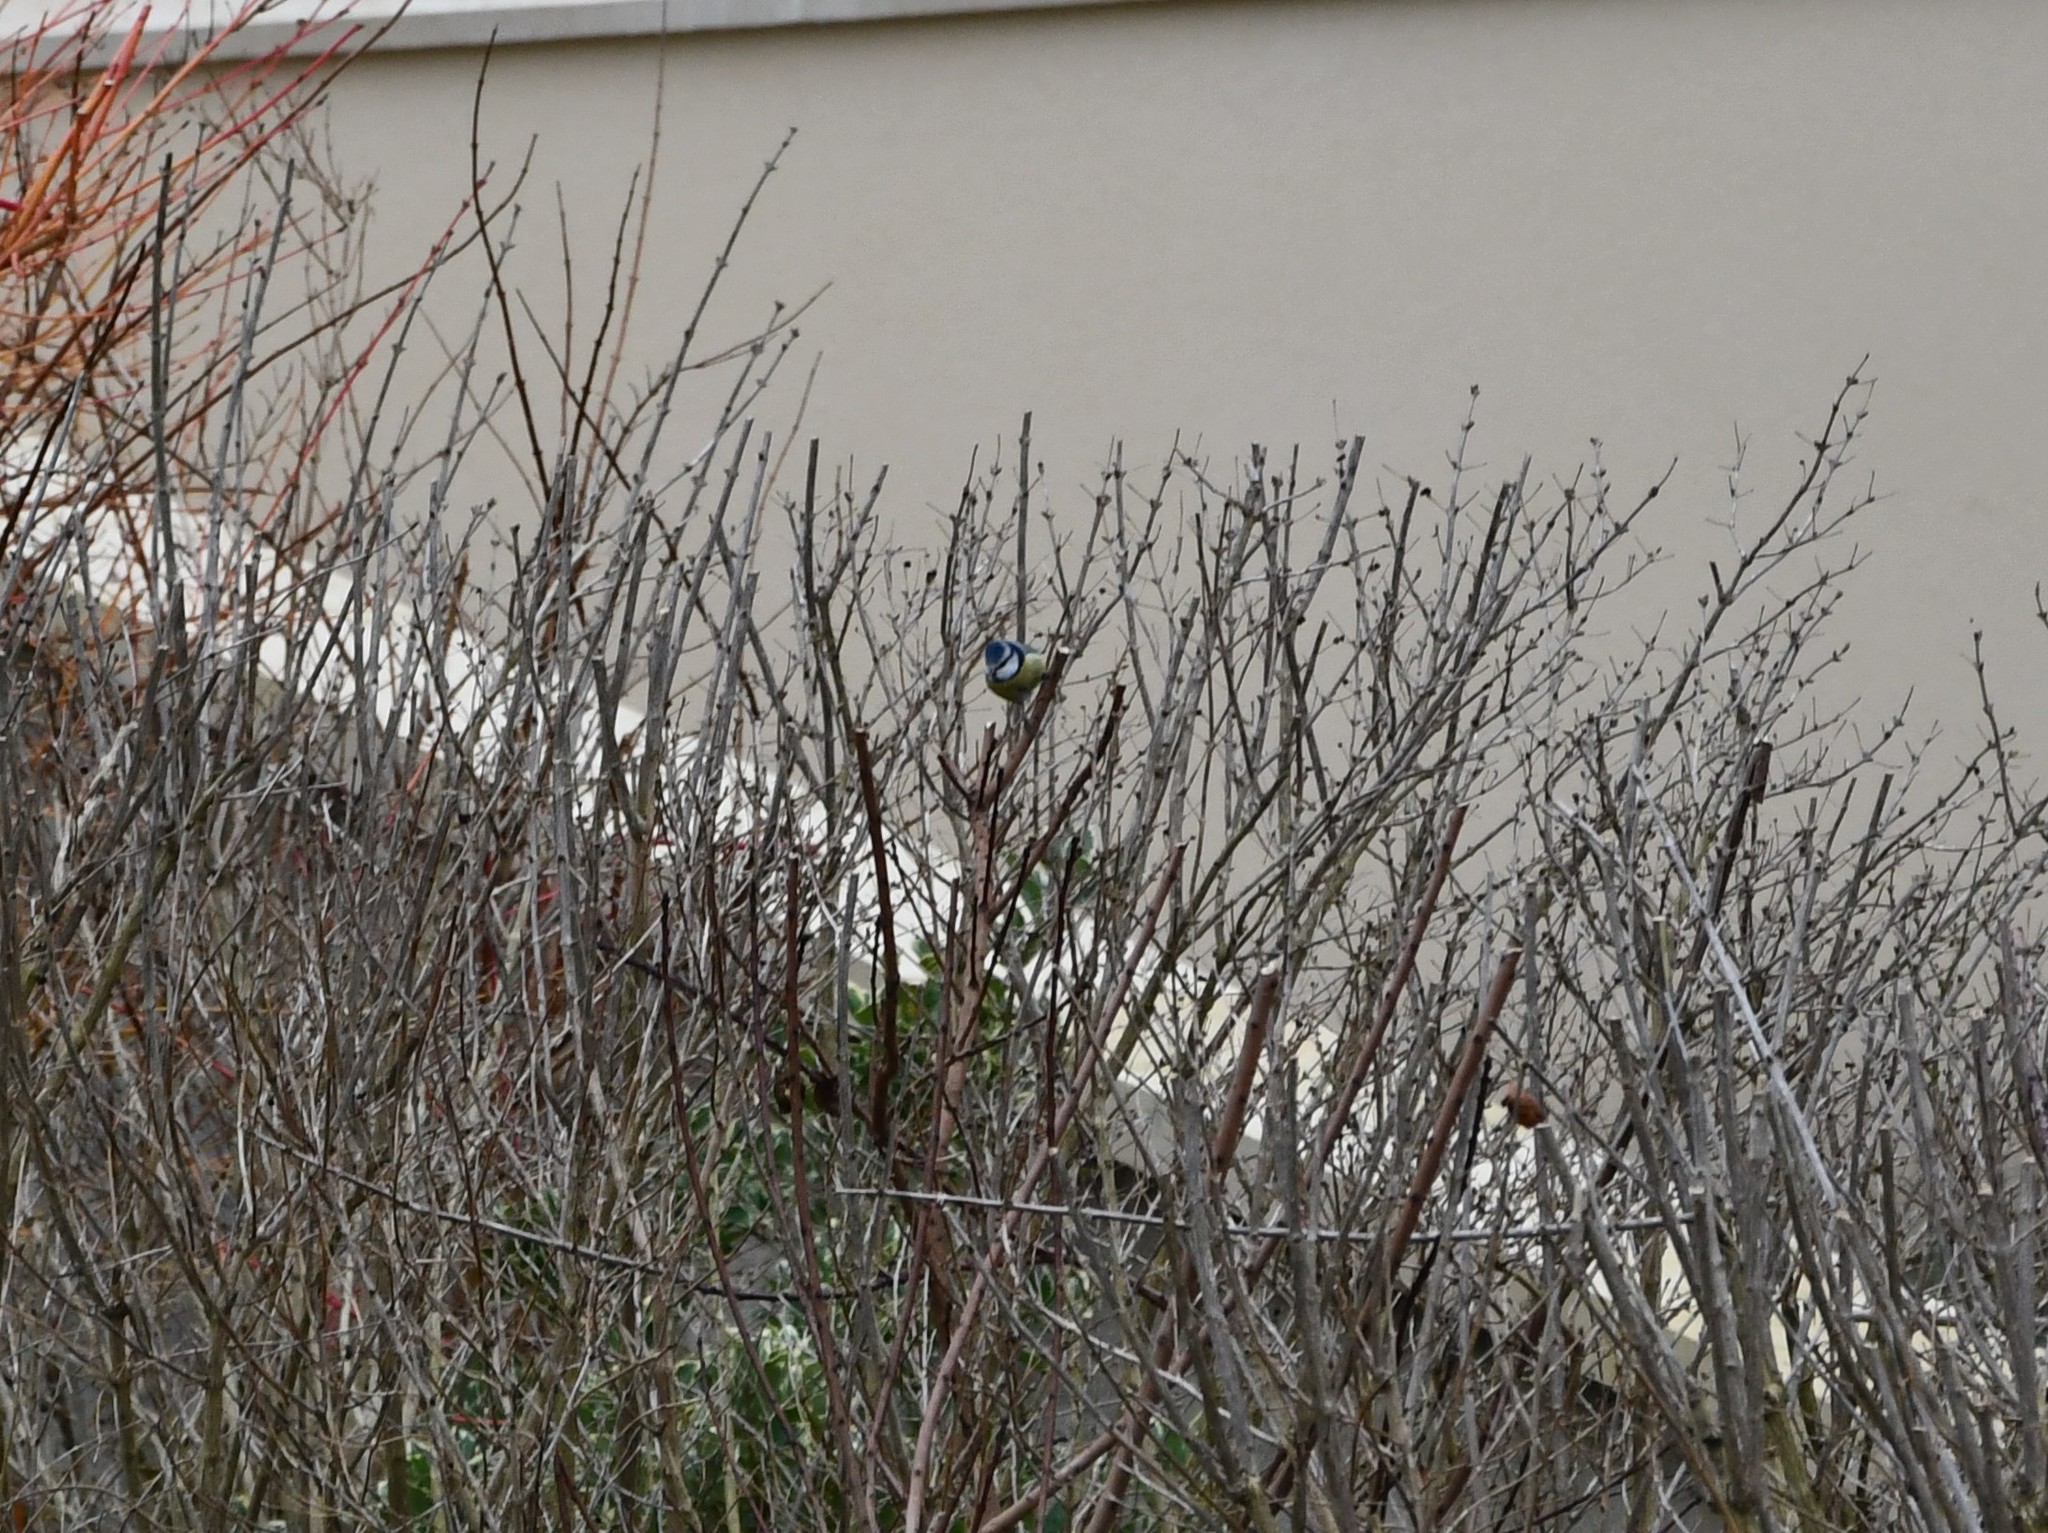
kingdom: Animalia
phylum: Chordata
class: Aves
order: Passeriformes
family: Paridae
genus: Cyanistes
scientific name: Cyanistes caeruleus
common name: Eurasian blue tit
